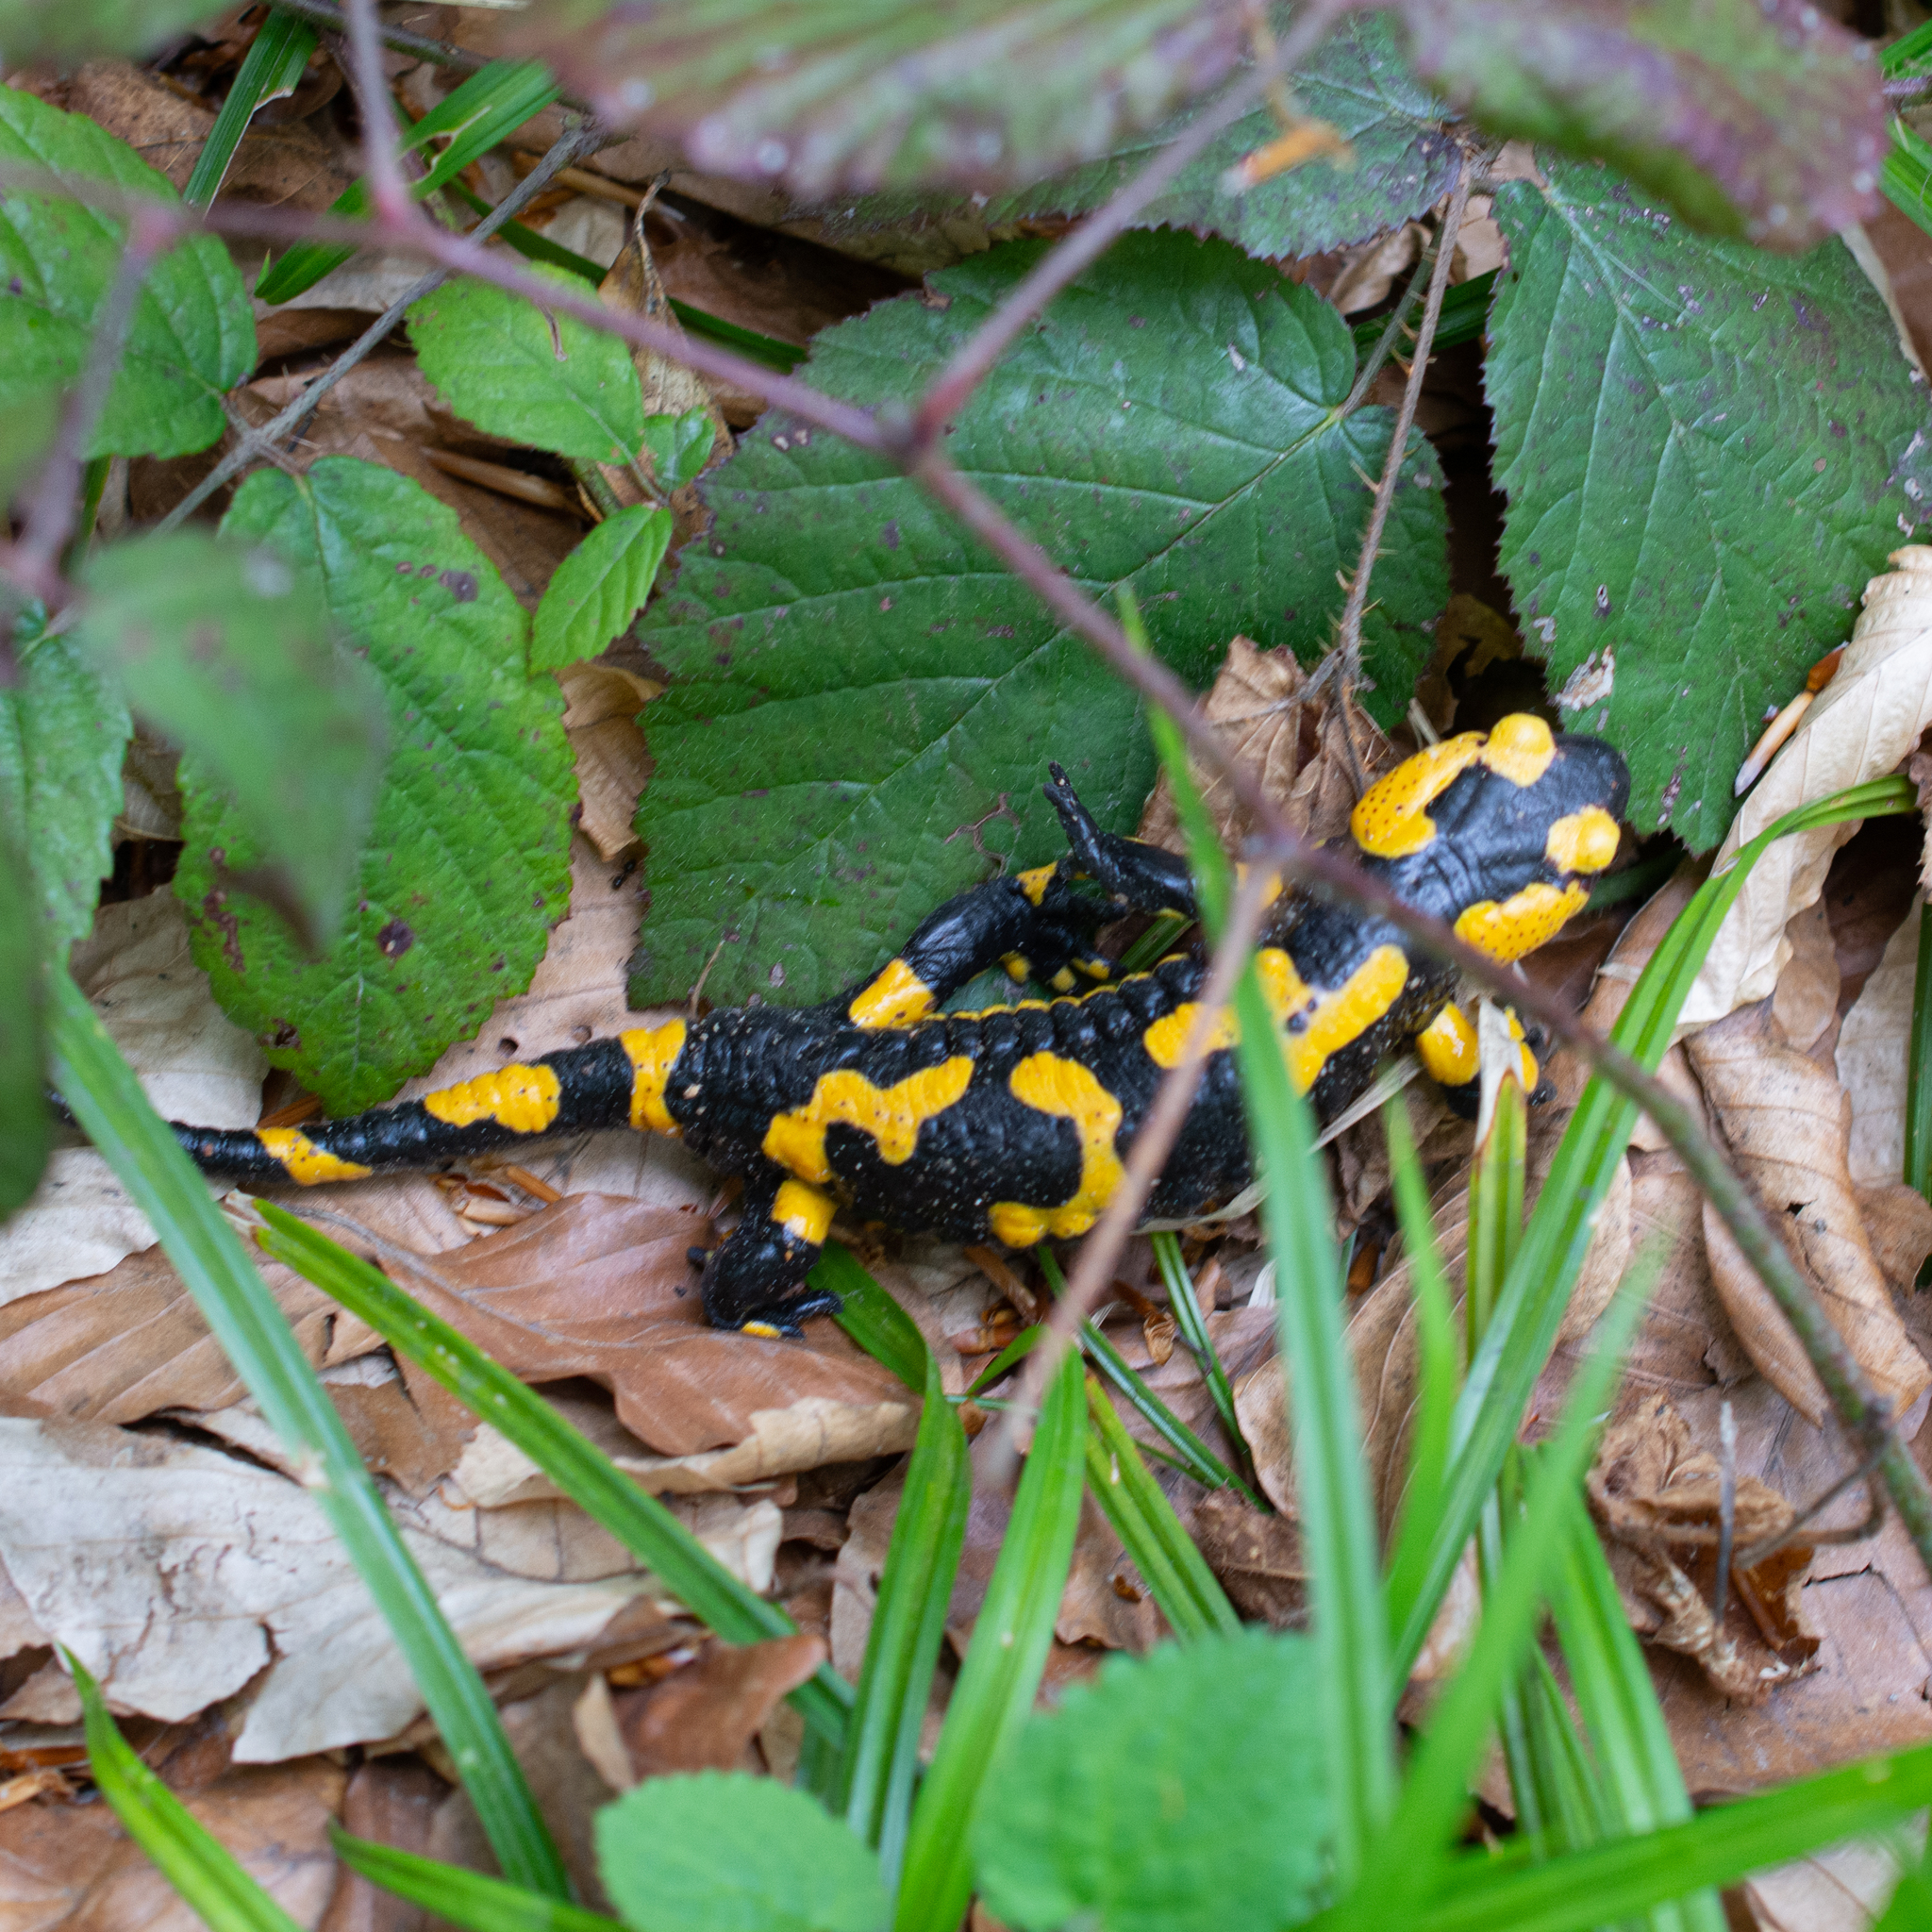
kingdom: Animalia
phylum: Chordata
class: Amphibia
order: Caudata
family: Salamandridae
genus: Salamandra
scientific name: Salamandra salamandra
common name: Fire salamander
